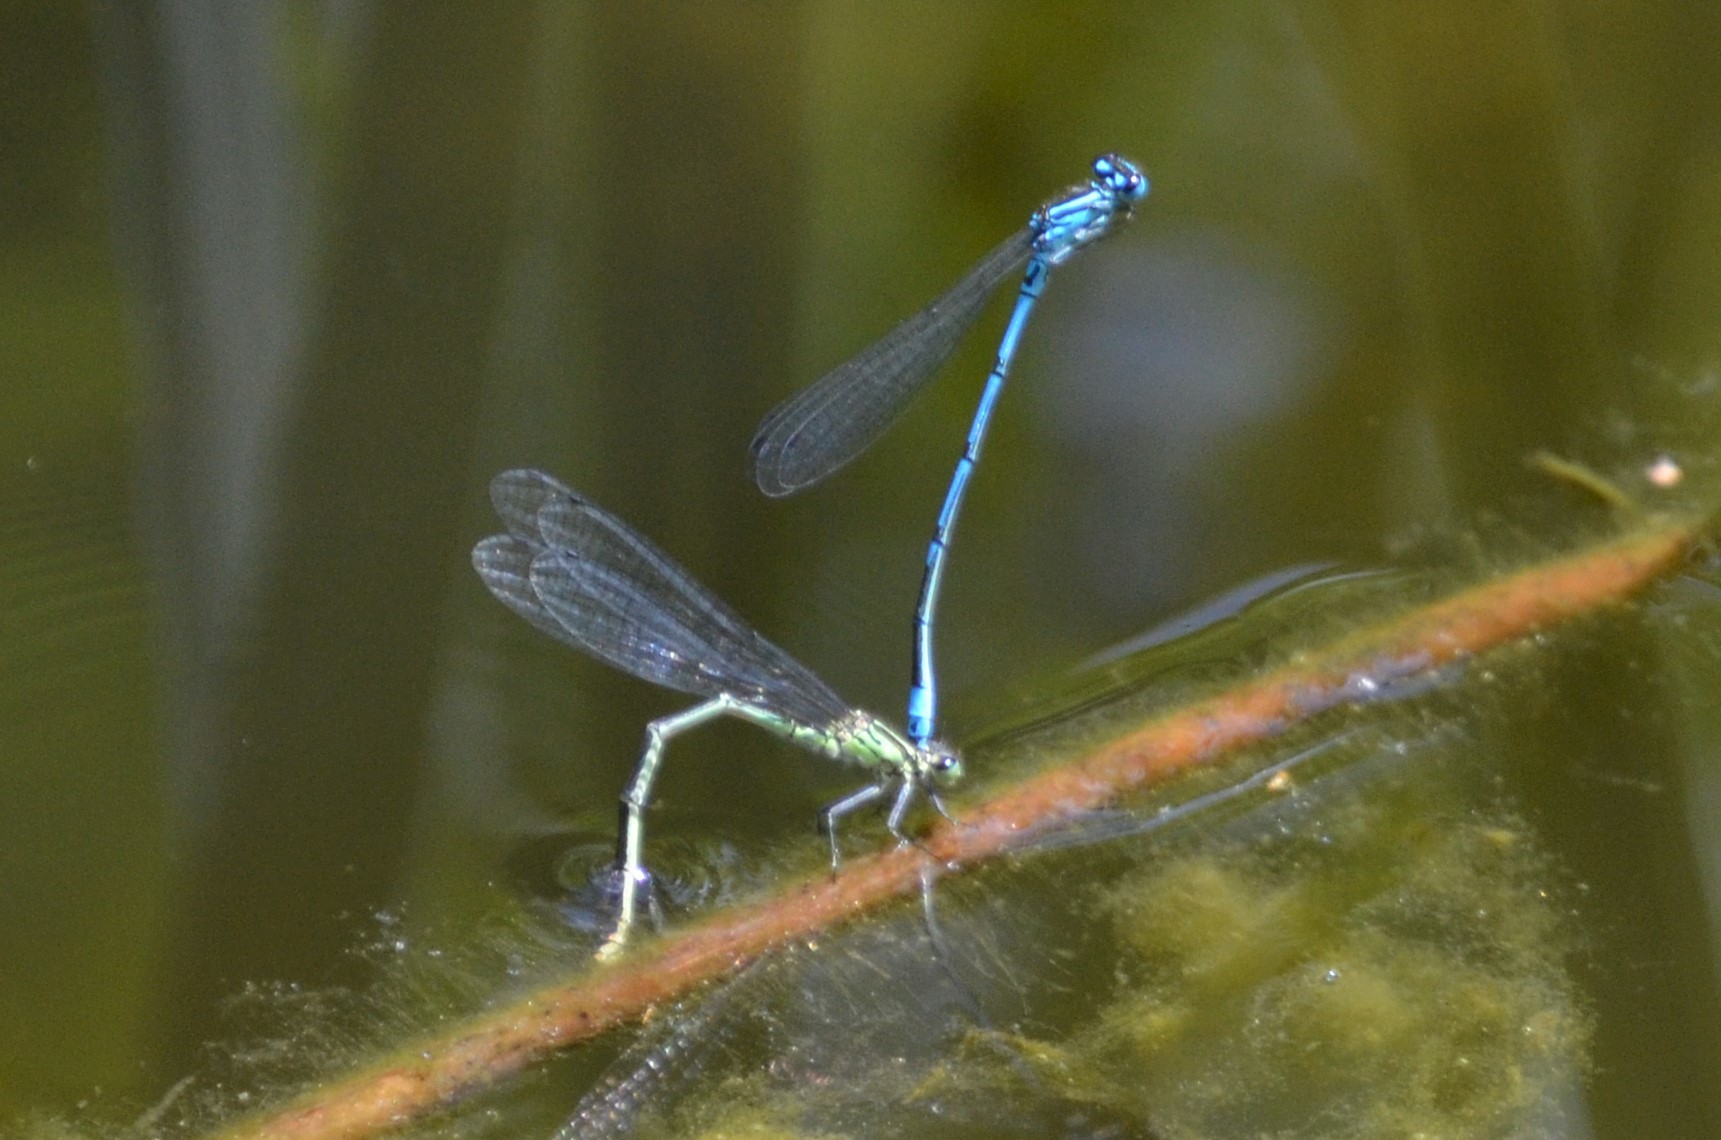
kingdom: Animalia
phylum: Arthropoda
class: Insecta
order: Odonata
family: Coenagrionidae
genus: Coenagrion
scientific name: Coenagrion puella
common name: Azure damselfly
